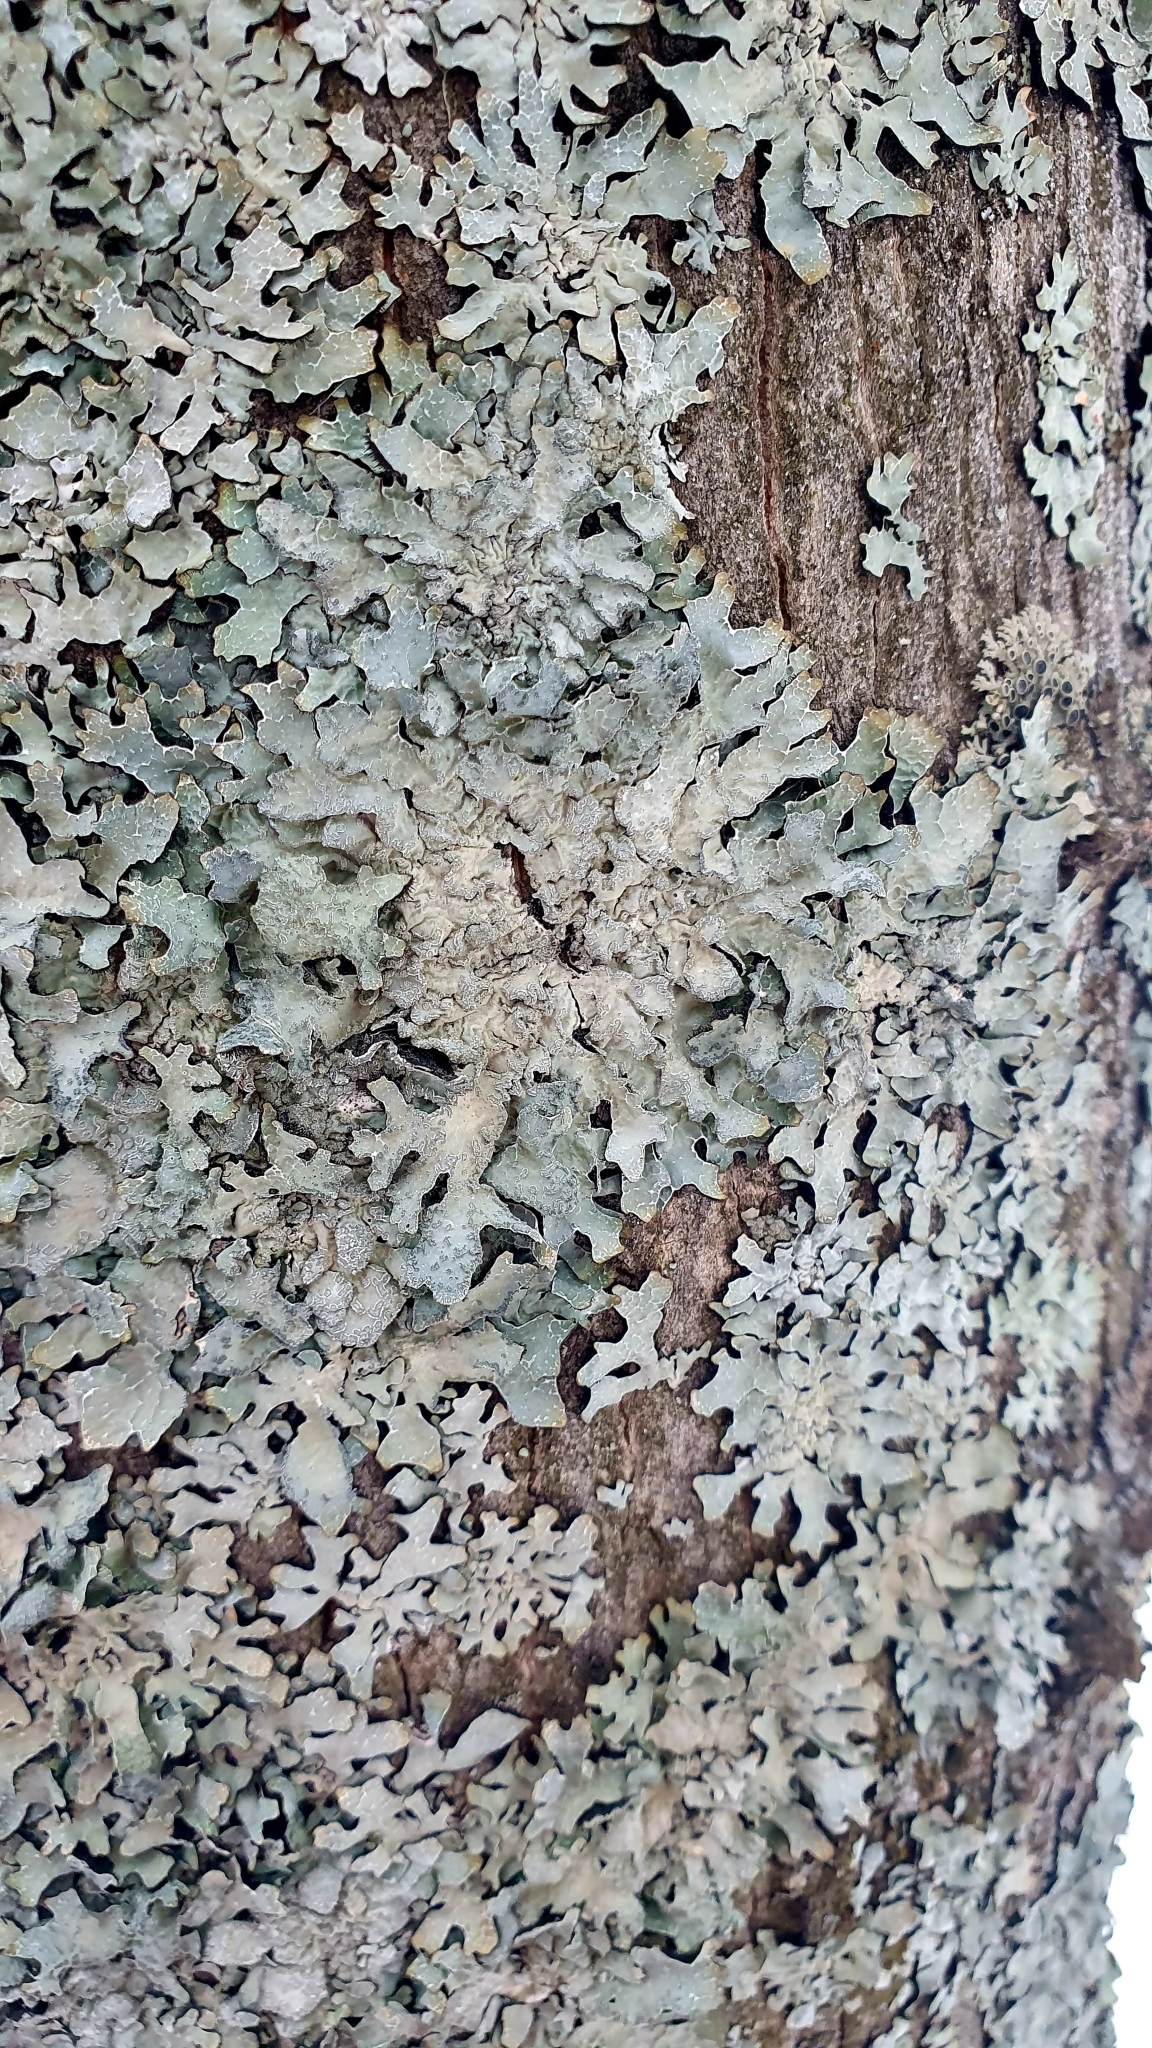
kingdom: Fungi
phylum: Ascomycota
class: Lecanoromycetes
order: Lecanorales
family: Parmeliaceae
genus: Parmelia
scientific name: Parmelia sulcata
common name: Netted shield lichen
